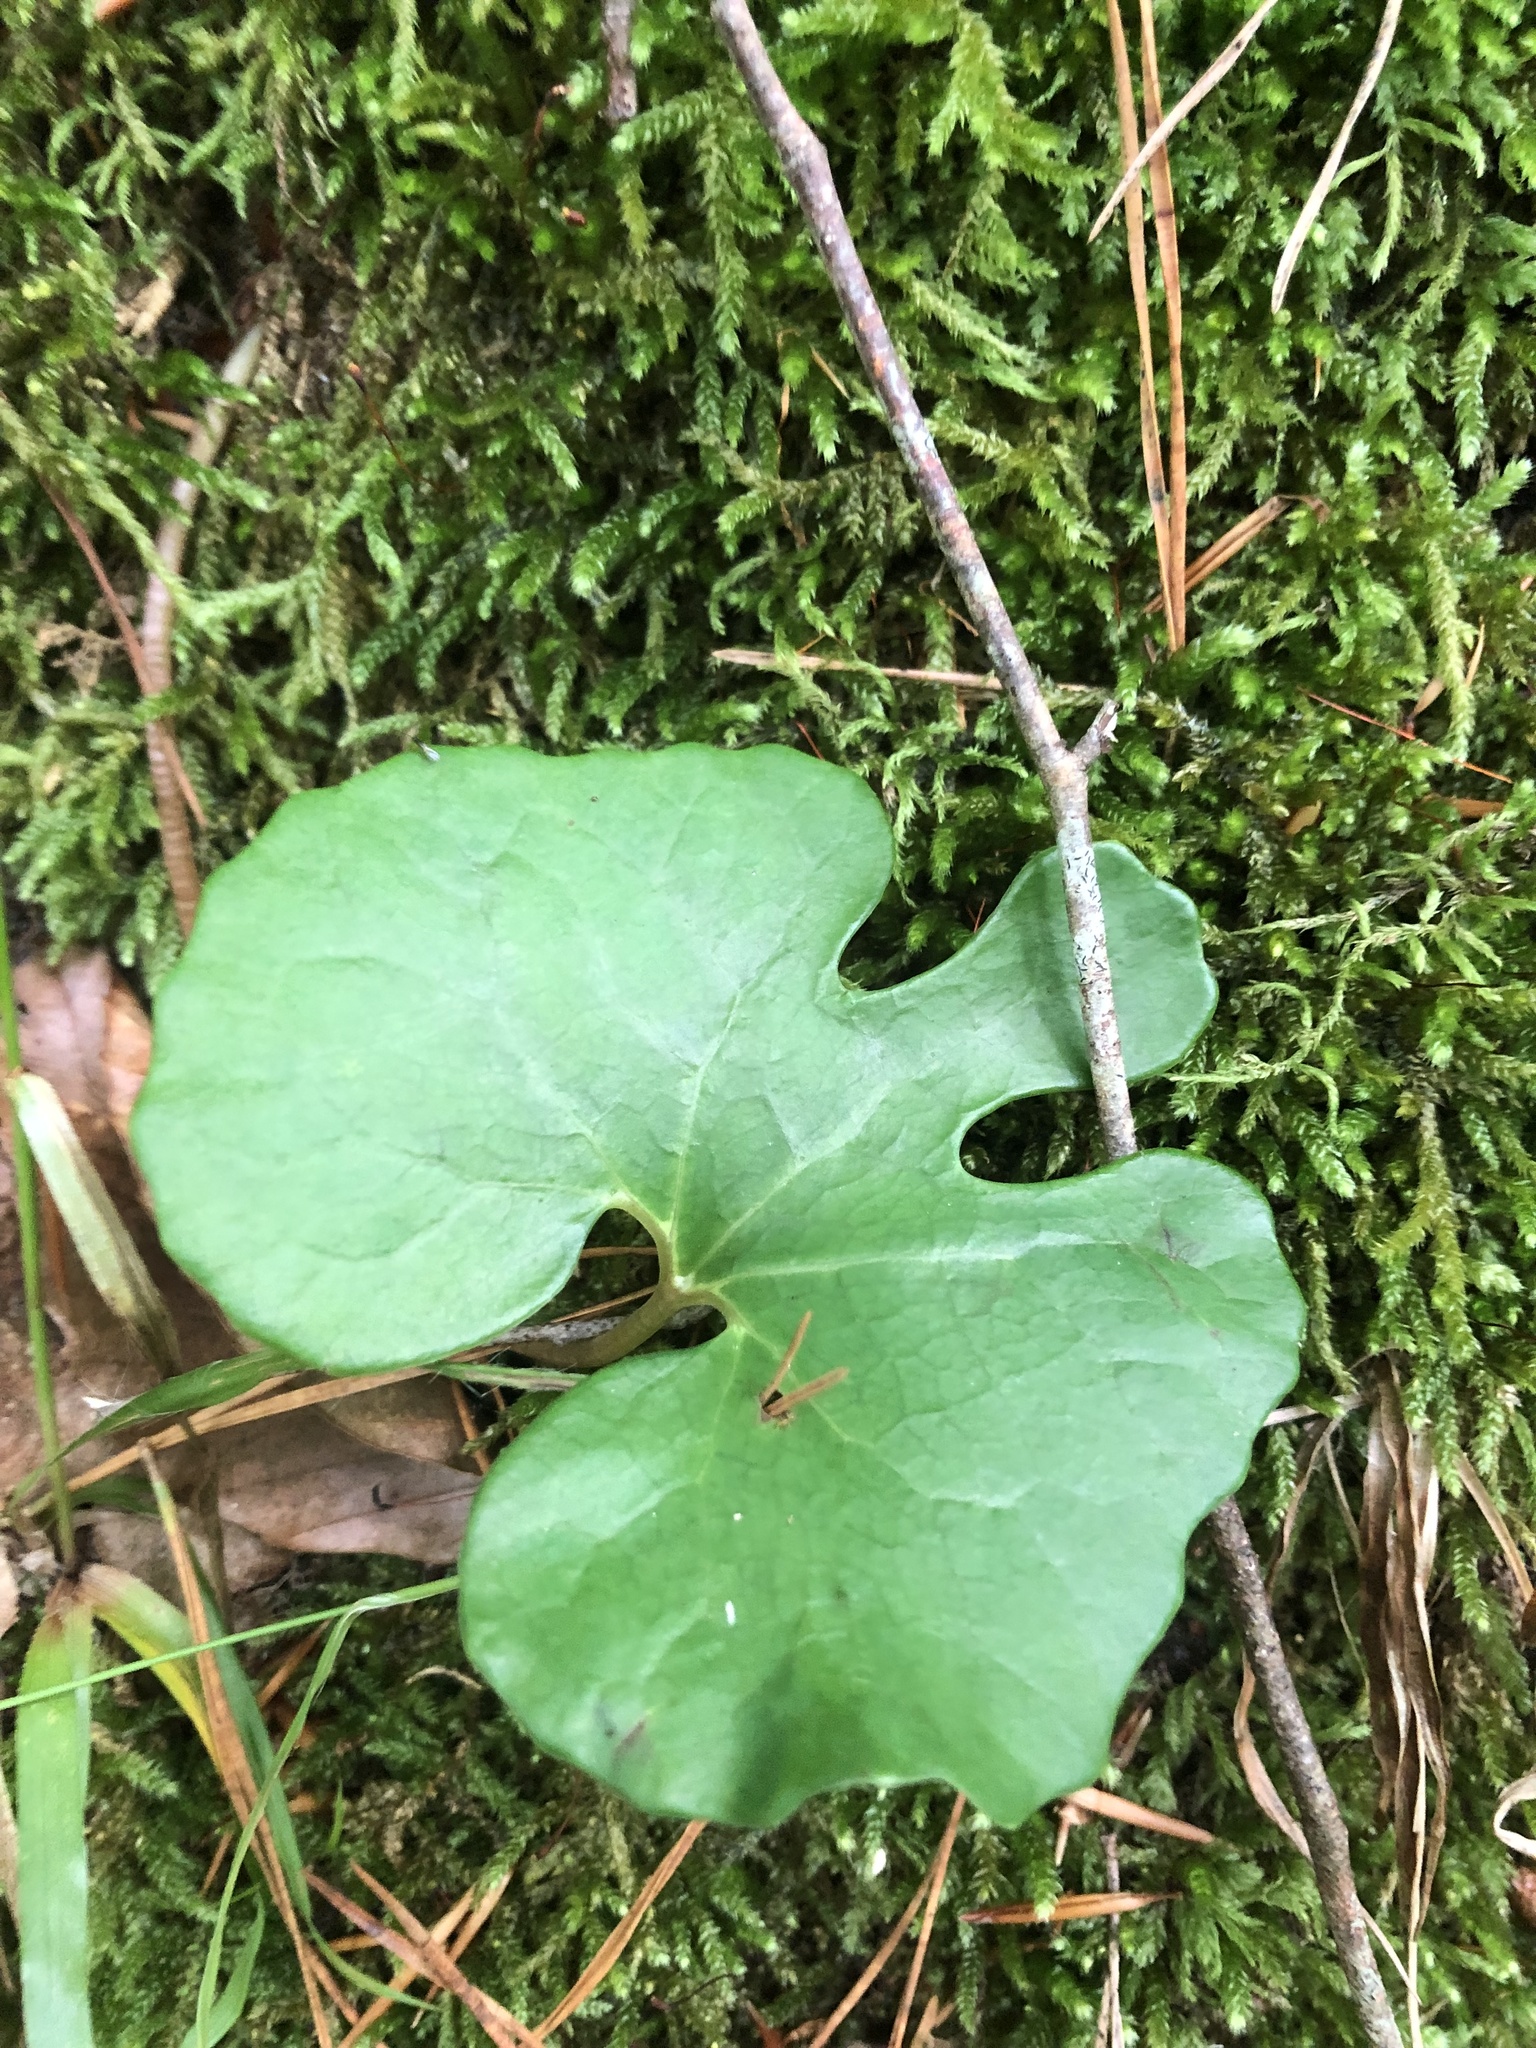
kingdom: Plantae
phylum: Tracheophyta
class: Magnoliopsida
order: Ranunculales
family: Papaveraceae
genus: Sanguinaria
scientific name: Sanguinaria canadensis
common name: Bloodroot
